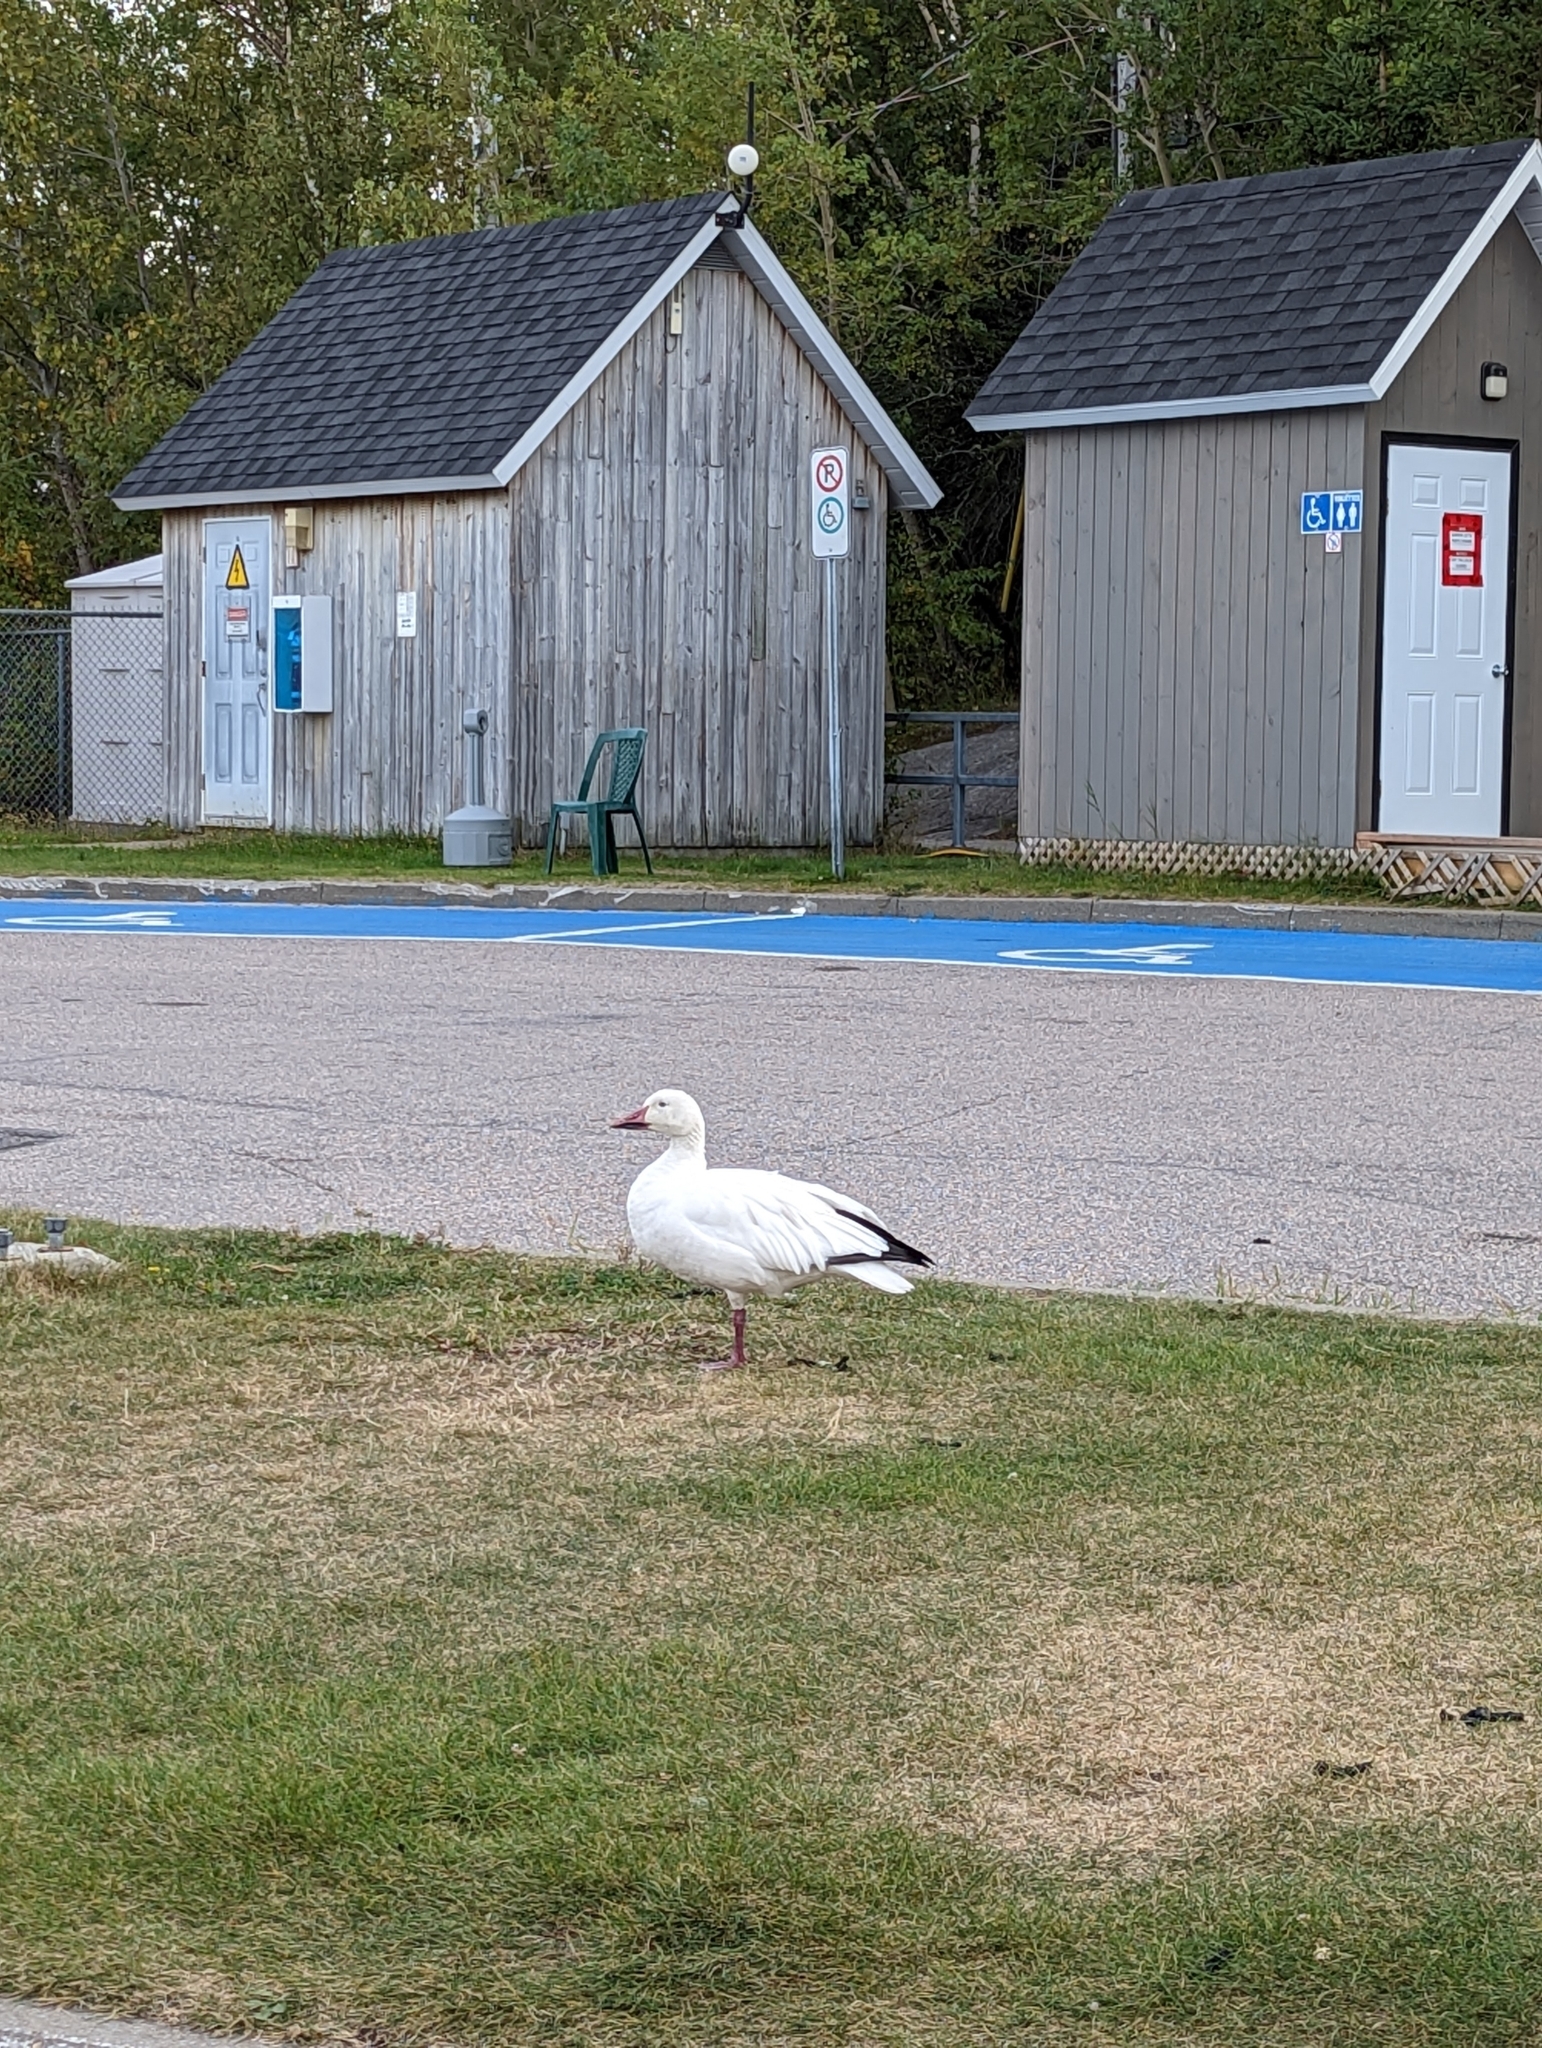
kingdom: Animalia
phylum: Chordata
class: Aves
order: Anseriformes
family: Anatidae
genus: Anser
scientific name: Anser caerulescens
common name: Snow goose
